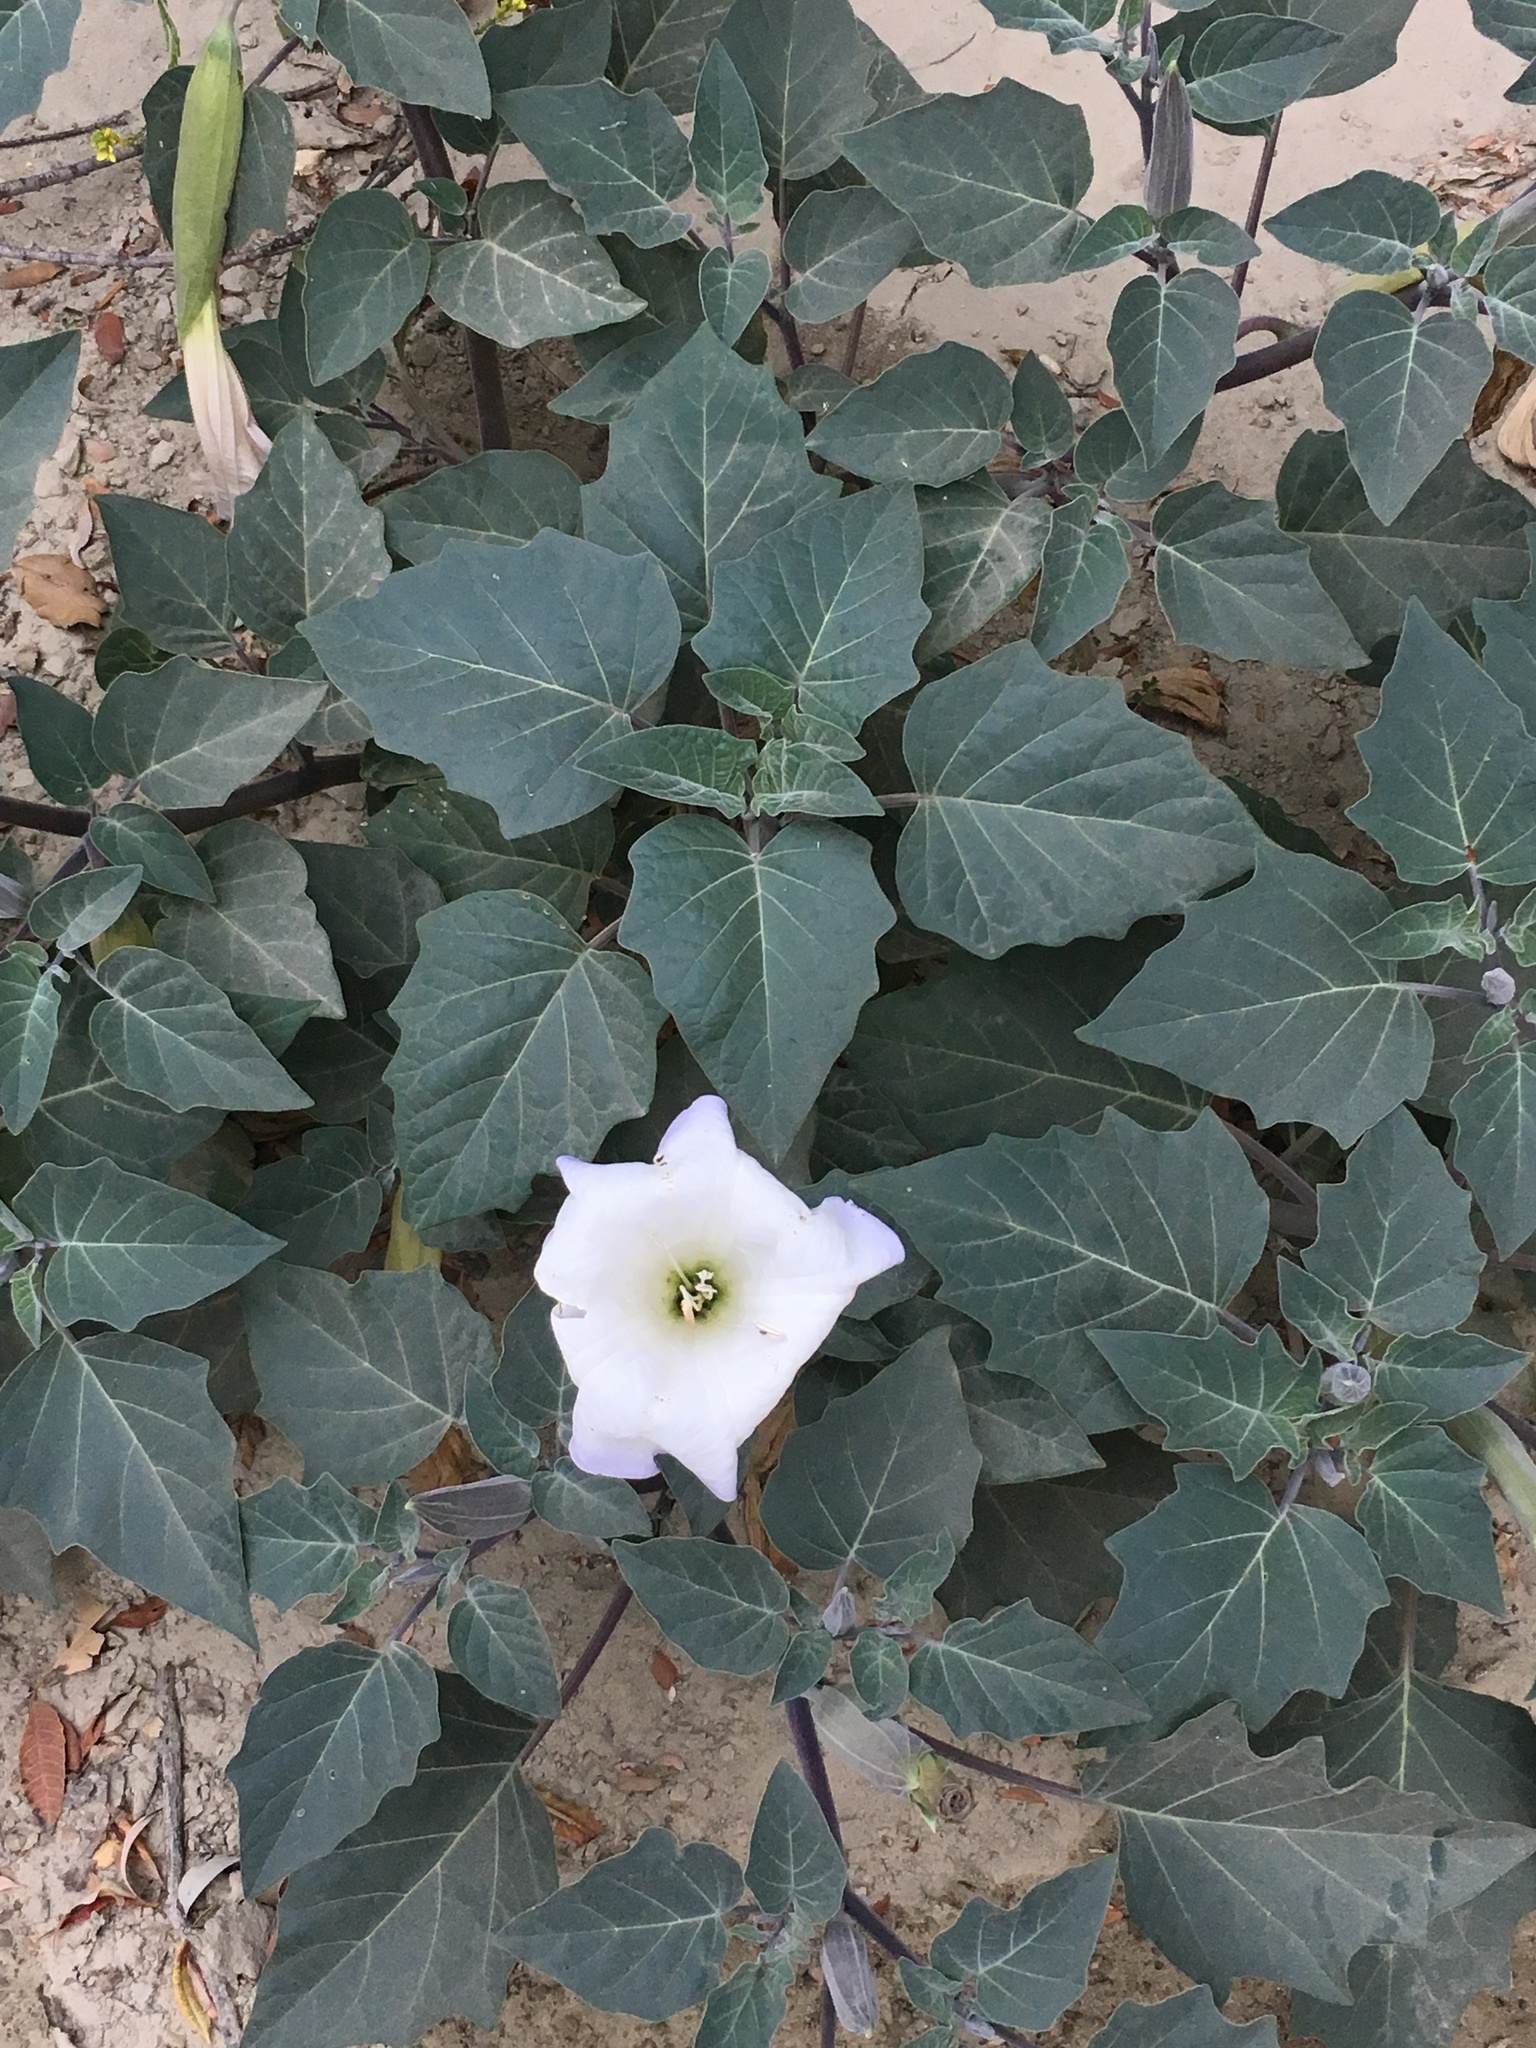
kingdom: Plantae
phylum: Tracheophyta
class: Magnoliopsida
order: Solanales
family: Solanaceae
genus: Datura
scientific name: Datura wrightii
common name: Sacred thorn-apple
